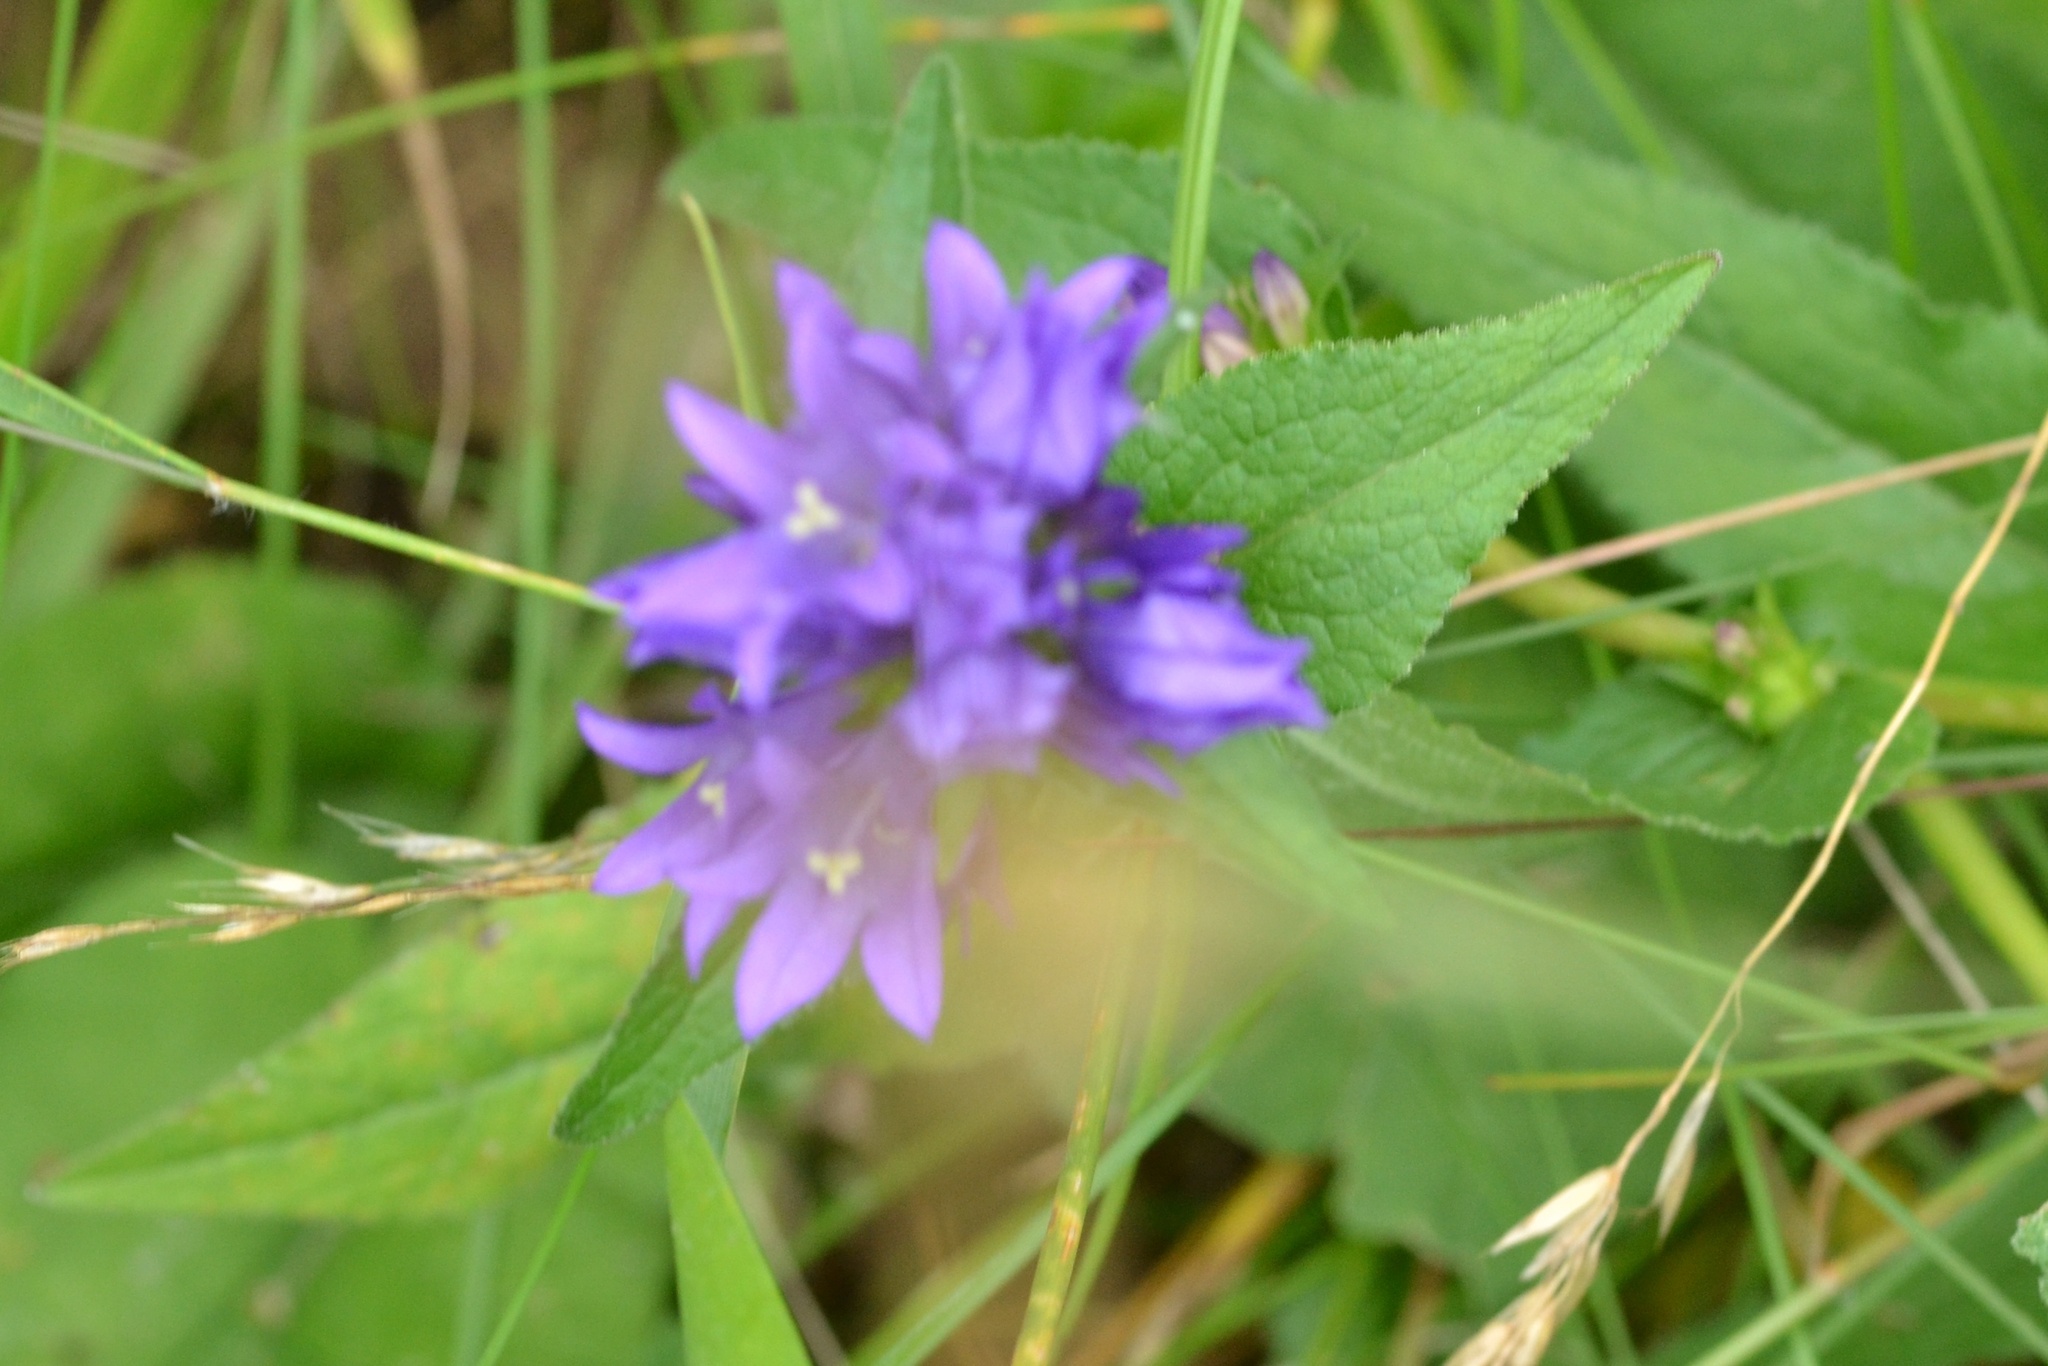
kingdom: Plantae
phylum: Tracheophyta
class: Magnoliopsida
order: Asterales
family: Campanulaceae
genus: Campanula
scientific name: Campanula glomerata
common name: Clustered bellflower
